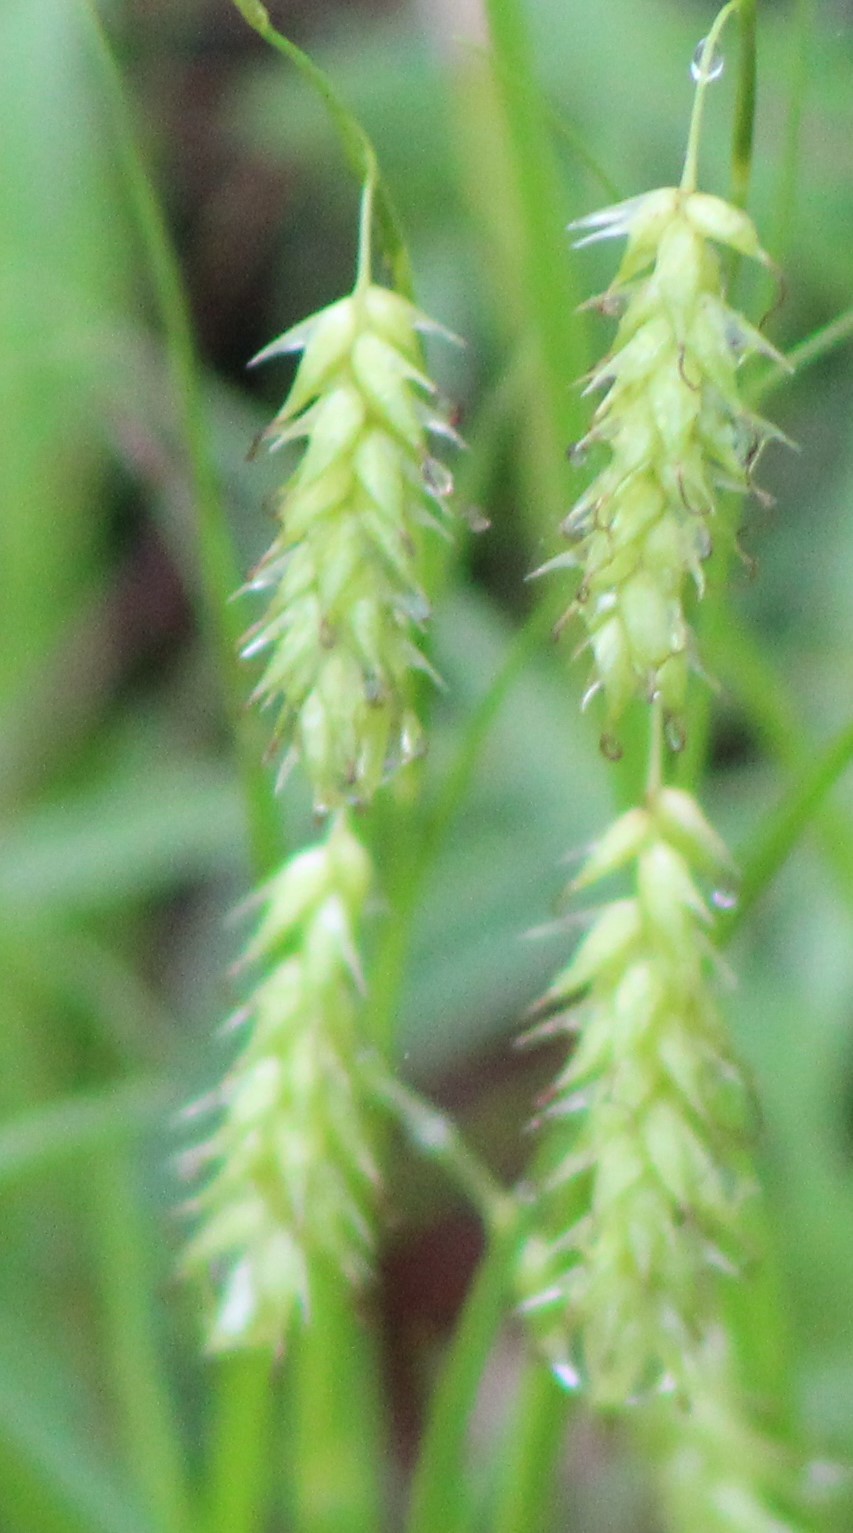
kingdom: Plantae
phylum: Tracheophyta
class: Liliopsida
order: Poales
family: Cyperaceae
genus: Carex
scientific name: Carex cherokeensis
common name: Cherokee sedge
